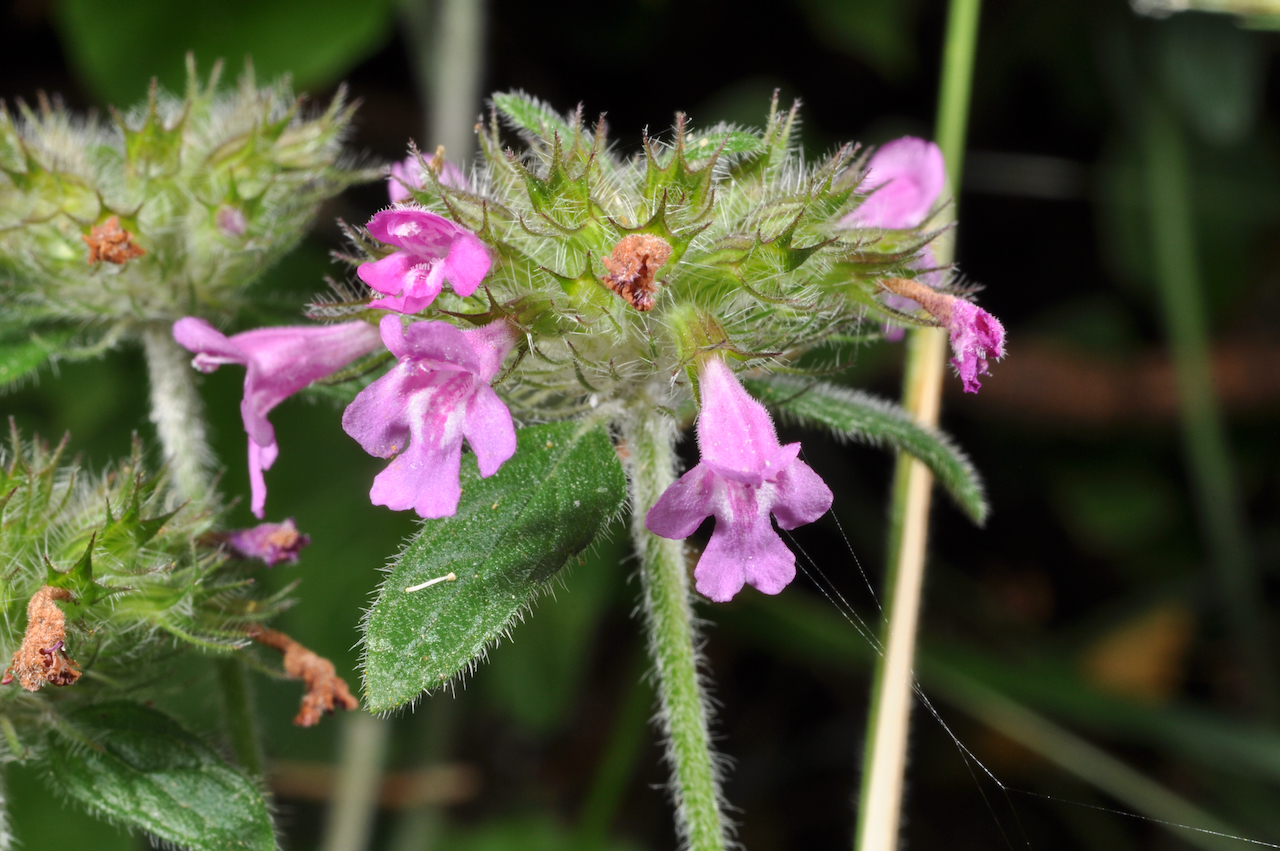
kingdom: Plantae
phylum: Tracheophyta
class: Magnoliopsida
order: Lamiales
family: Lamiaceae
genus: Clinopodium
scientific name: Clinopodium vulgare
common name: Wild basil
